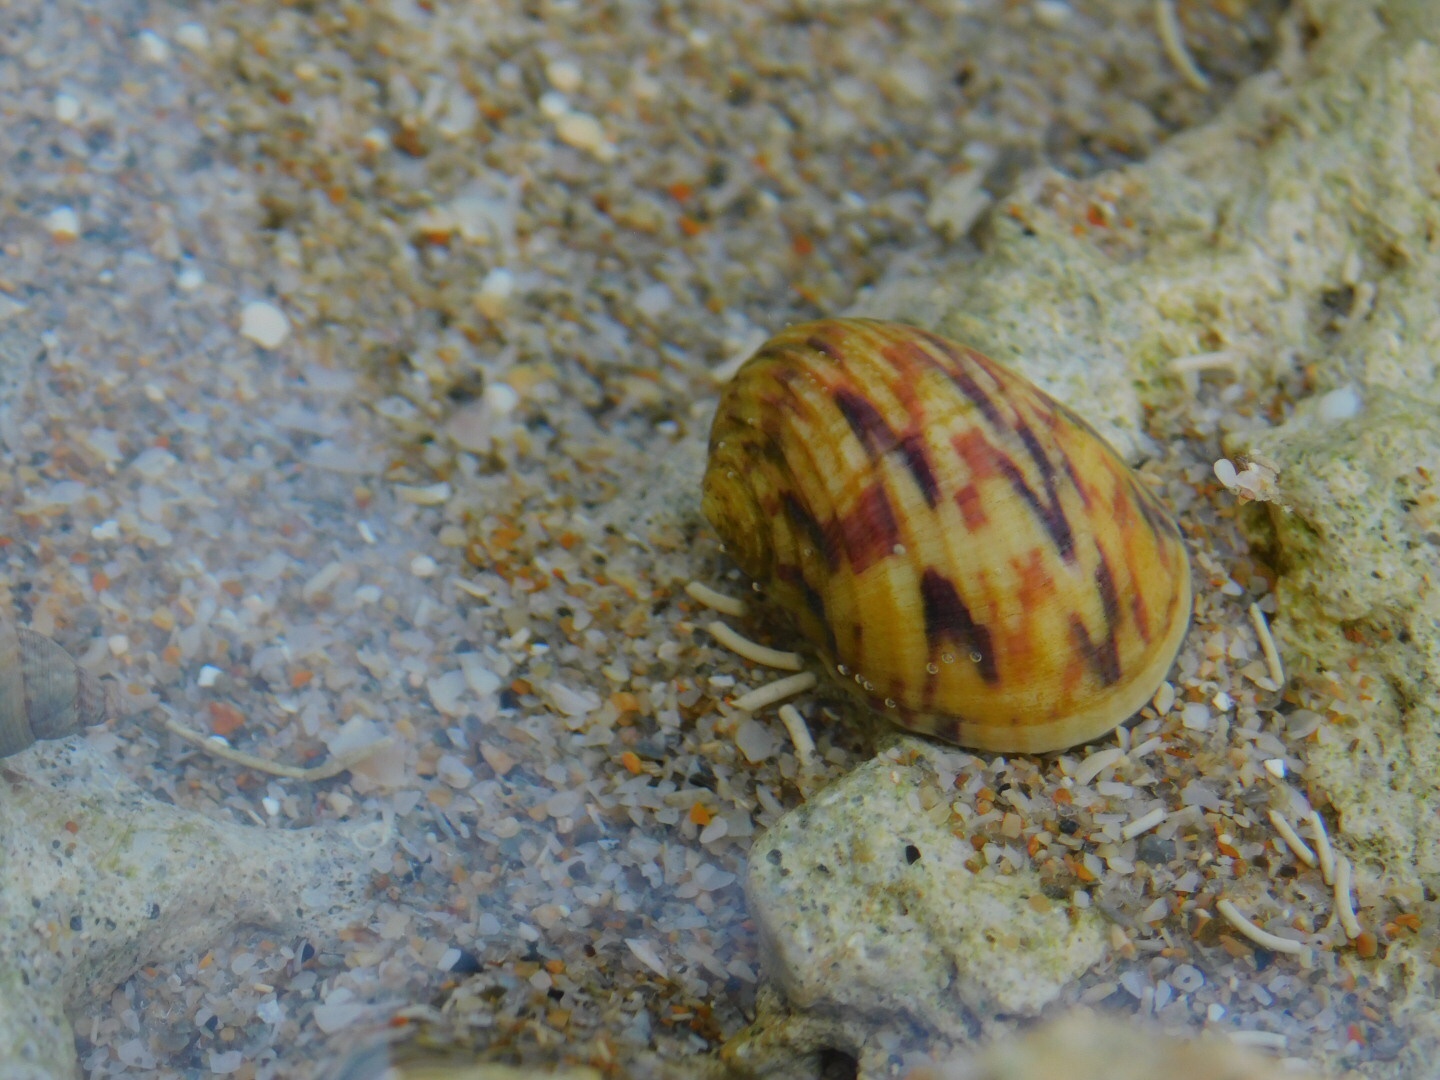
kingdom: Animalia
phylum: Mollusca
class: Gastropoda
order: Cycloneritida
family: Neritidae
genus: Nerita
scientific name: Nerita peloronta
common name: Bleeding tooth
